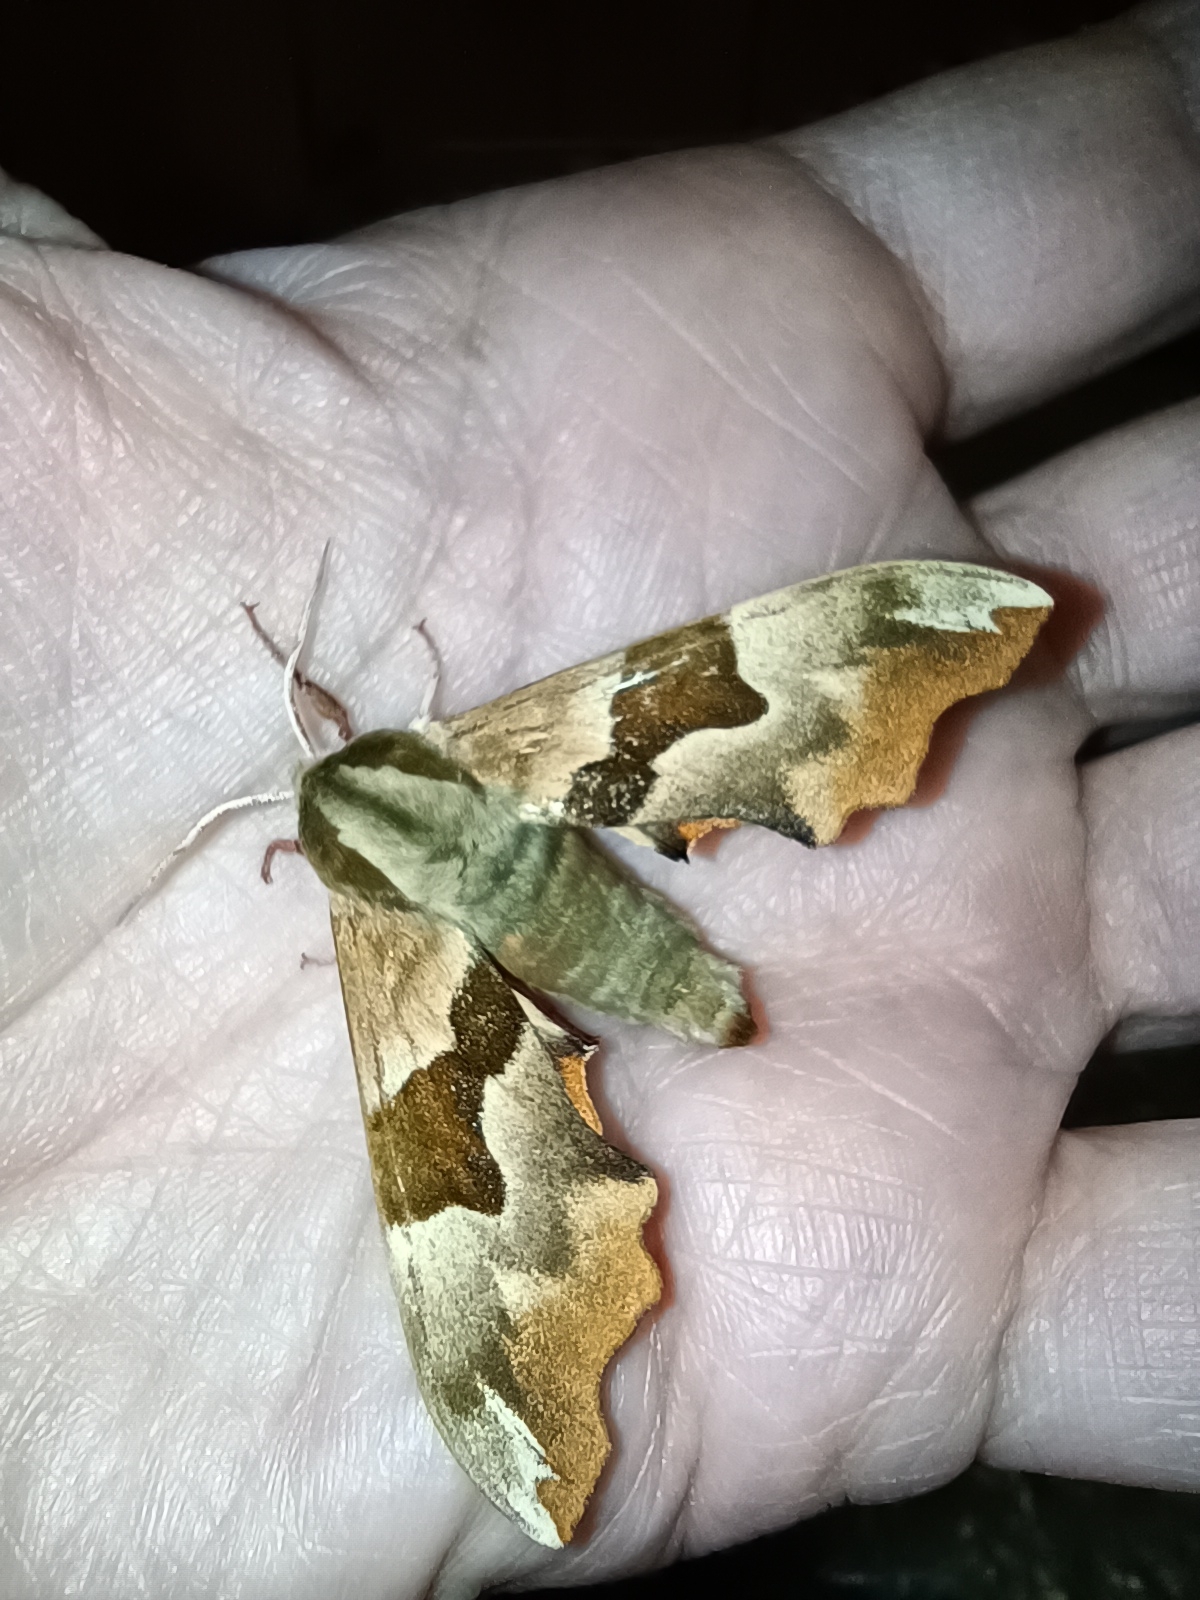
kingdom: Animalia
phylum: Arthropoda
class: Insecta
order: Lepidoptera
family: Sphingidae
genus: Mimas
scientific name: Mimas tiliae
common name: Lime hawk-moth
